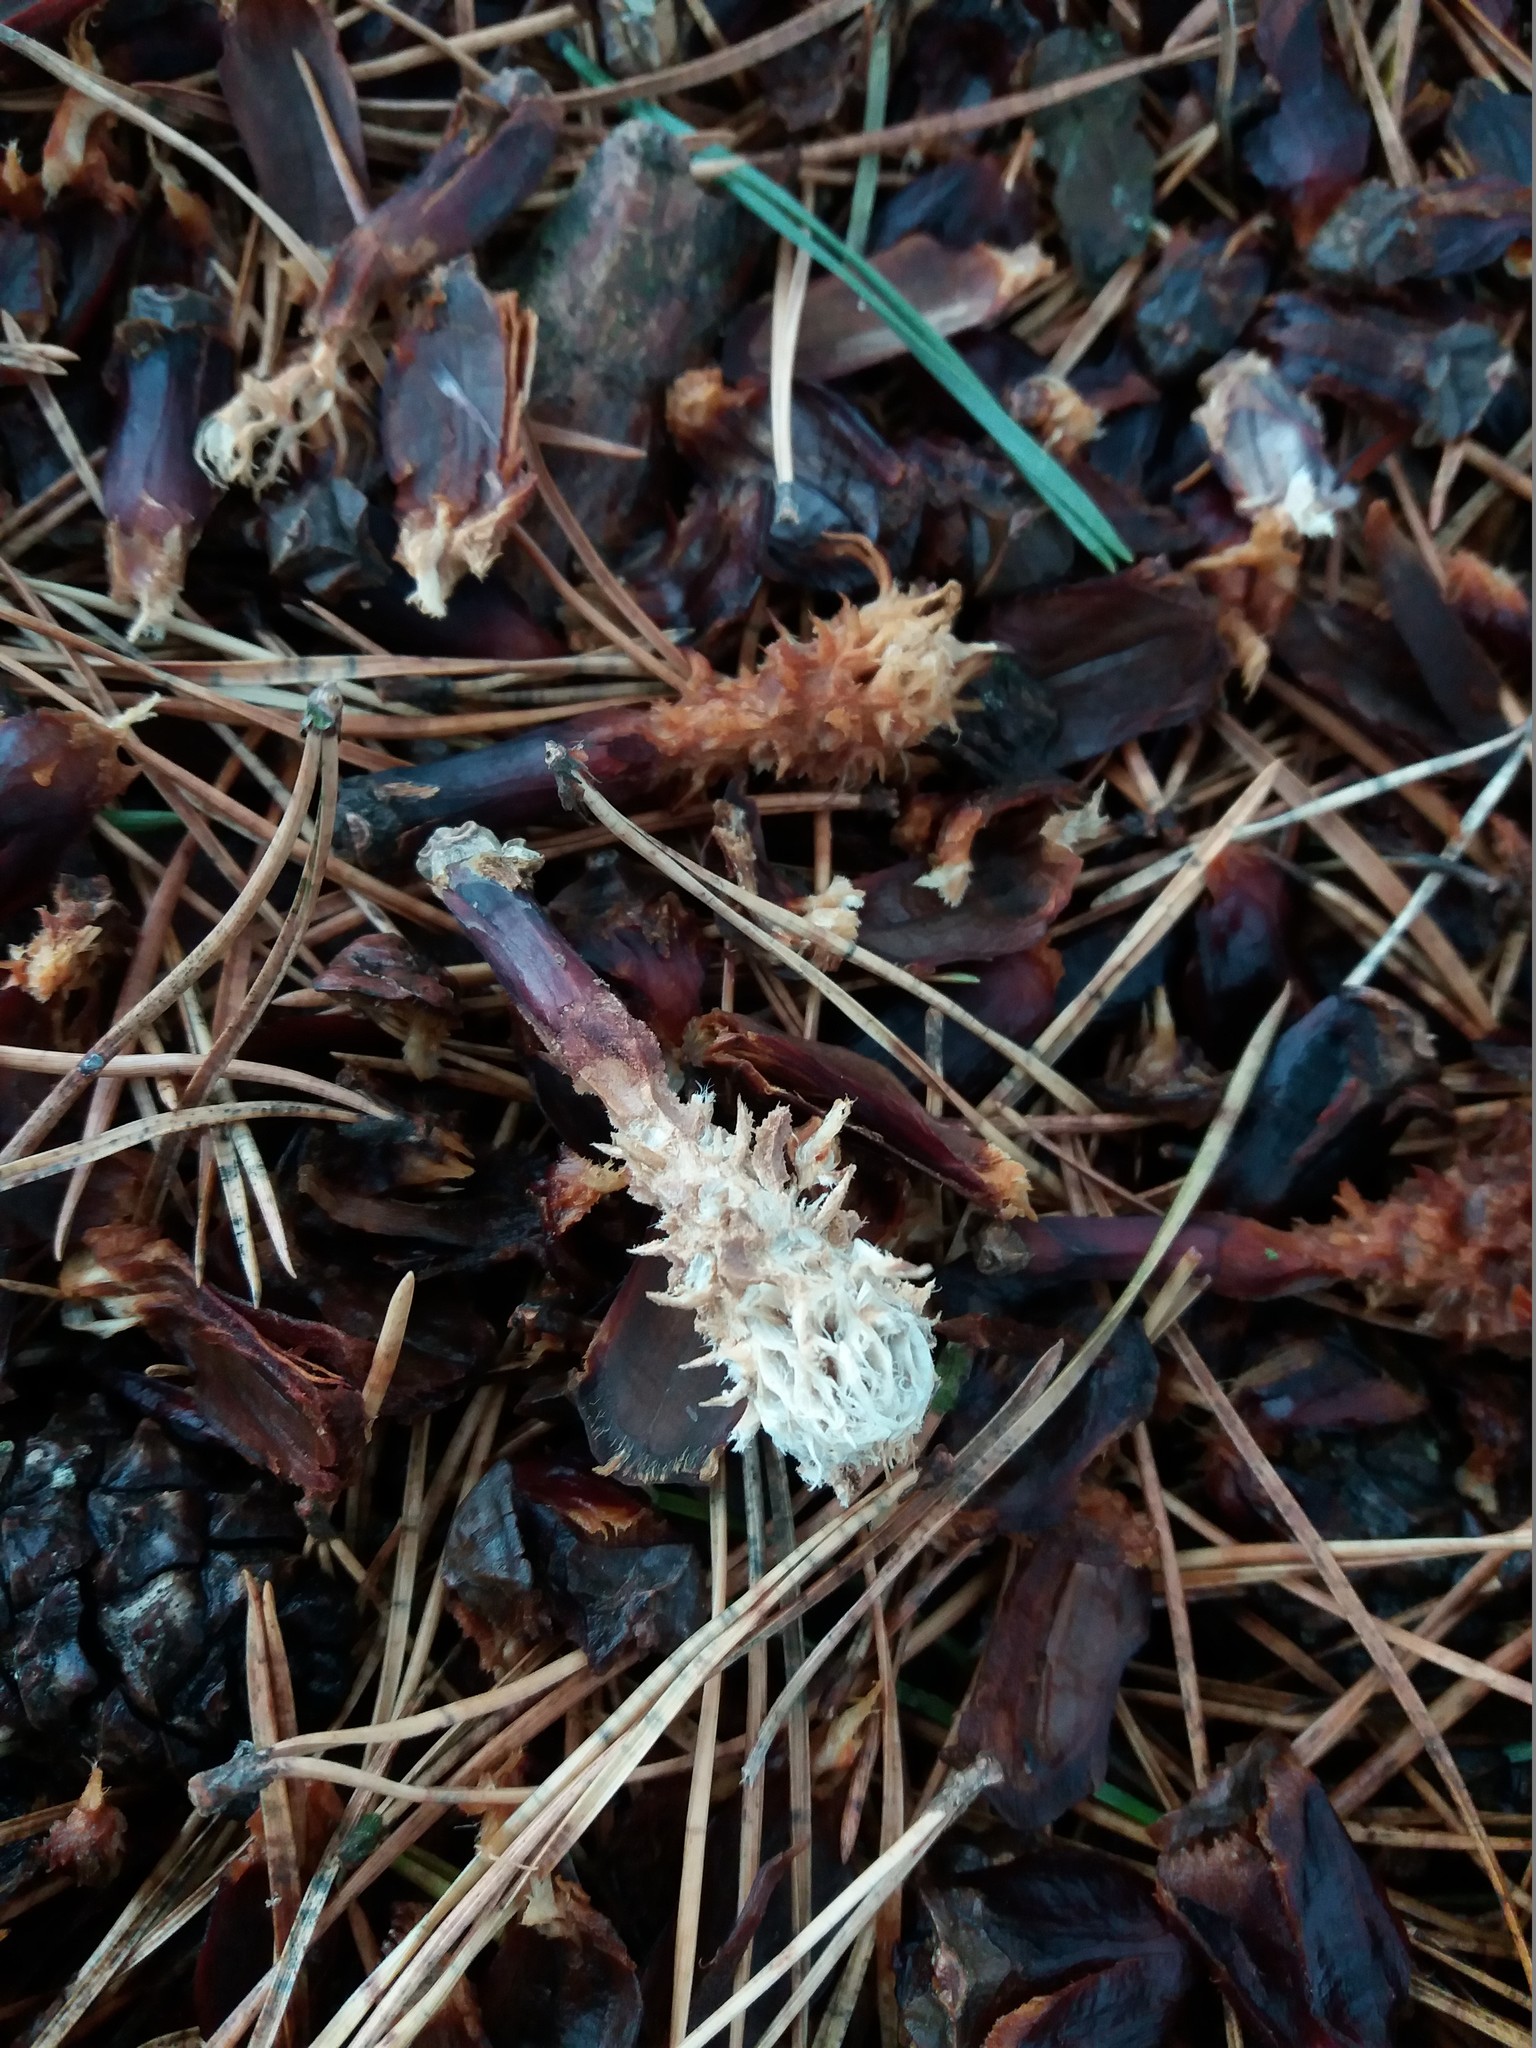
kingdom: Animalia
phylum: Chordata
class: Mammalia
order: Rodentia
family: Sciuridae
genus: Sciurus
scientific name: Sciurus vulgaris
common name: Eurasian red squirrel
